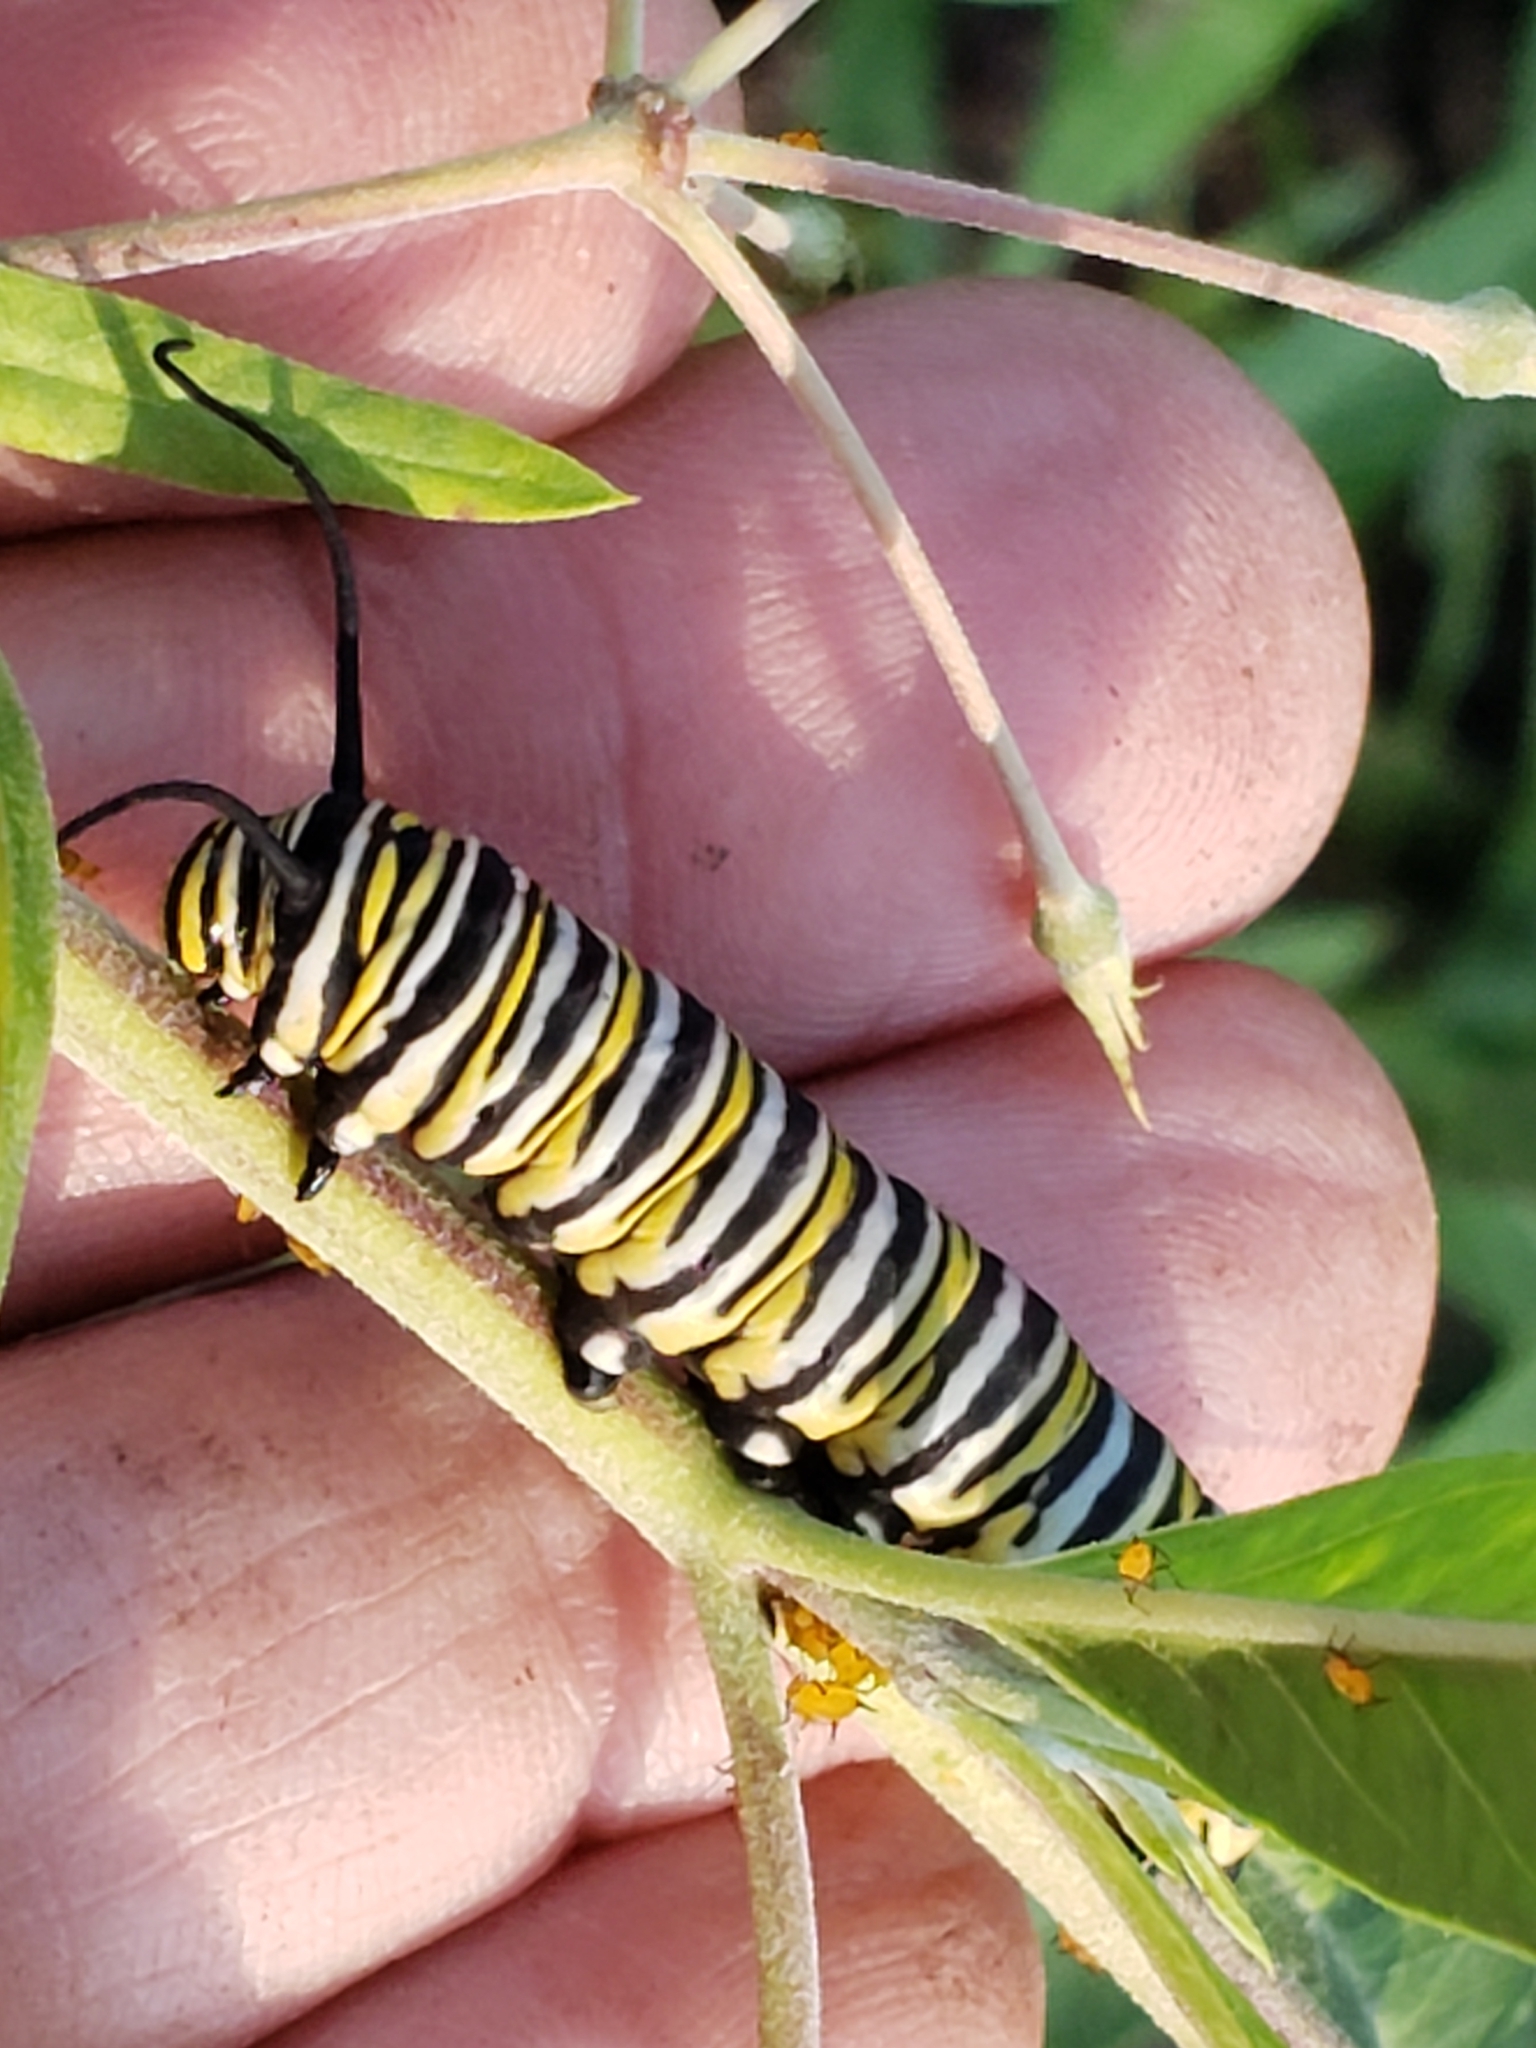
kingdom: Animalia
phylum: Arthropoda
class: Insecta
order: Lepidoptera
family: Nymphalidae
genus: Danaus
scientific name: Danaus plexippus
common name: Monarch
